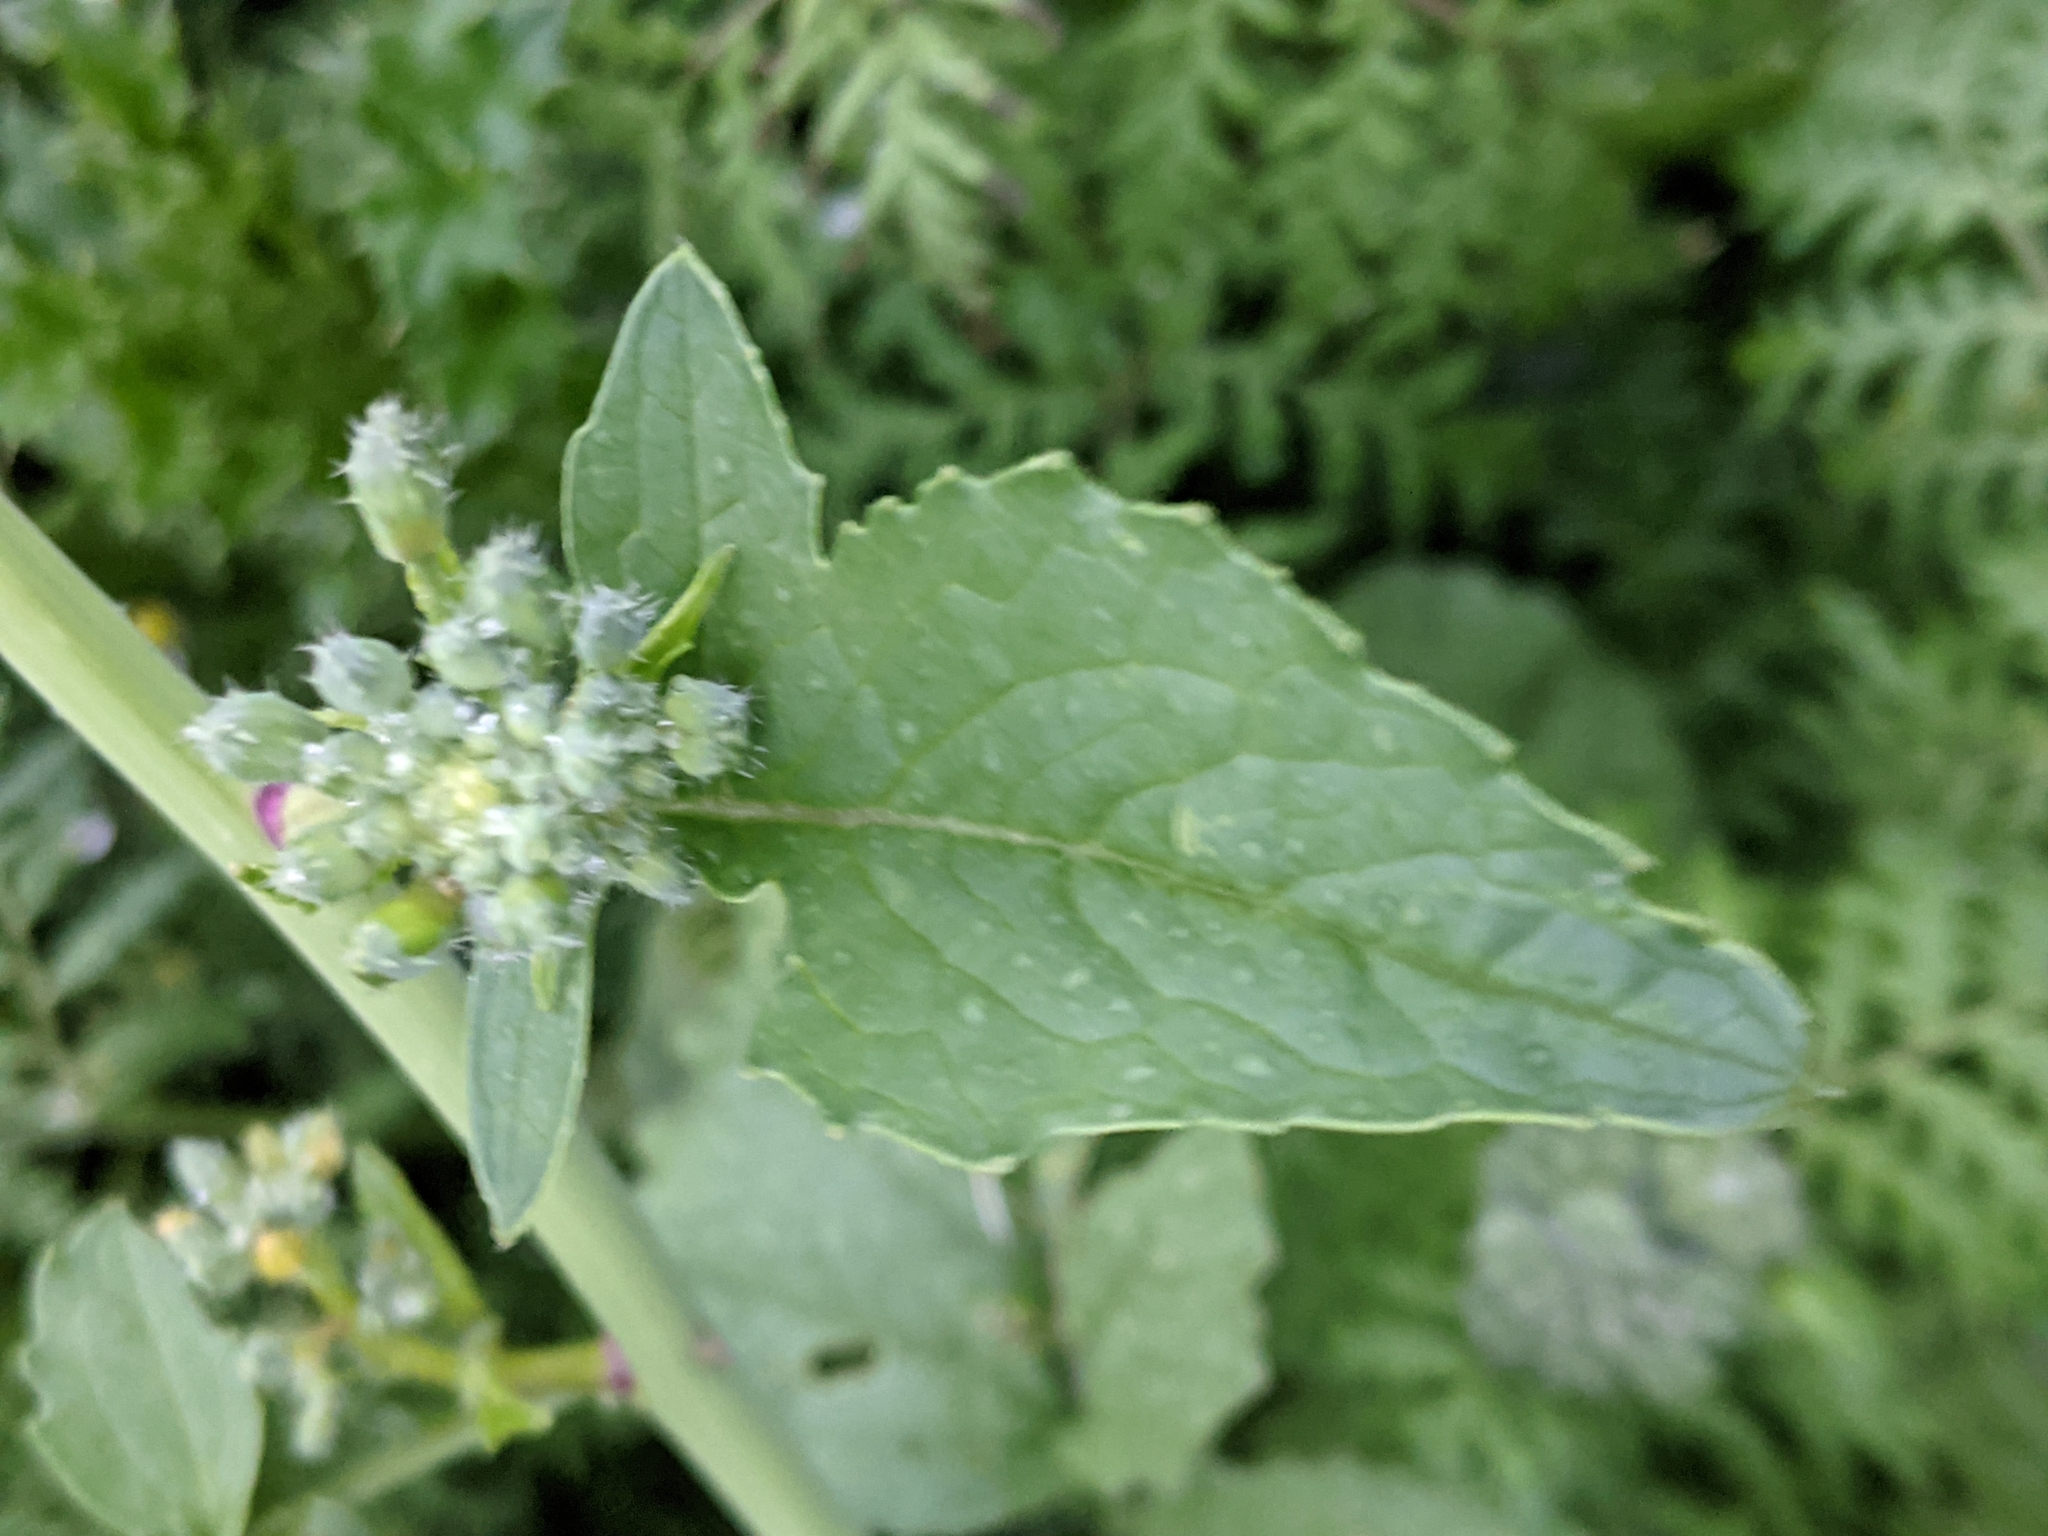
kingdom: Plantae
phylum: Tracheophyta
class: Magnoliopsida
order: Brassicales
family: Brassicaceae
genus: Raphanus
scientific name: Raphanus raphanistrum
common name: Wild radish
